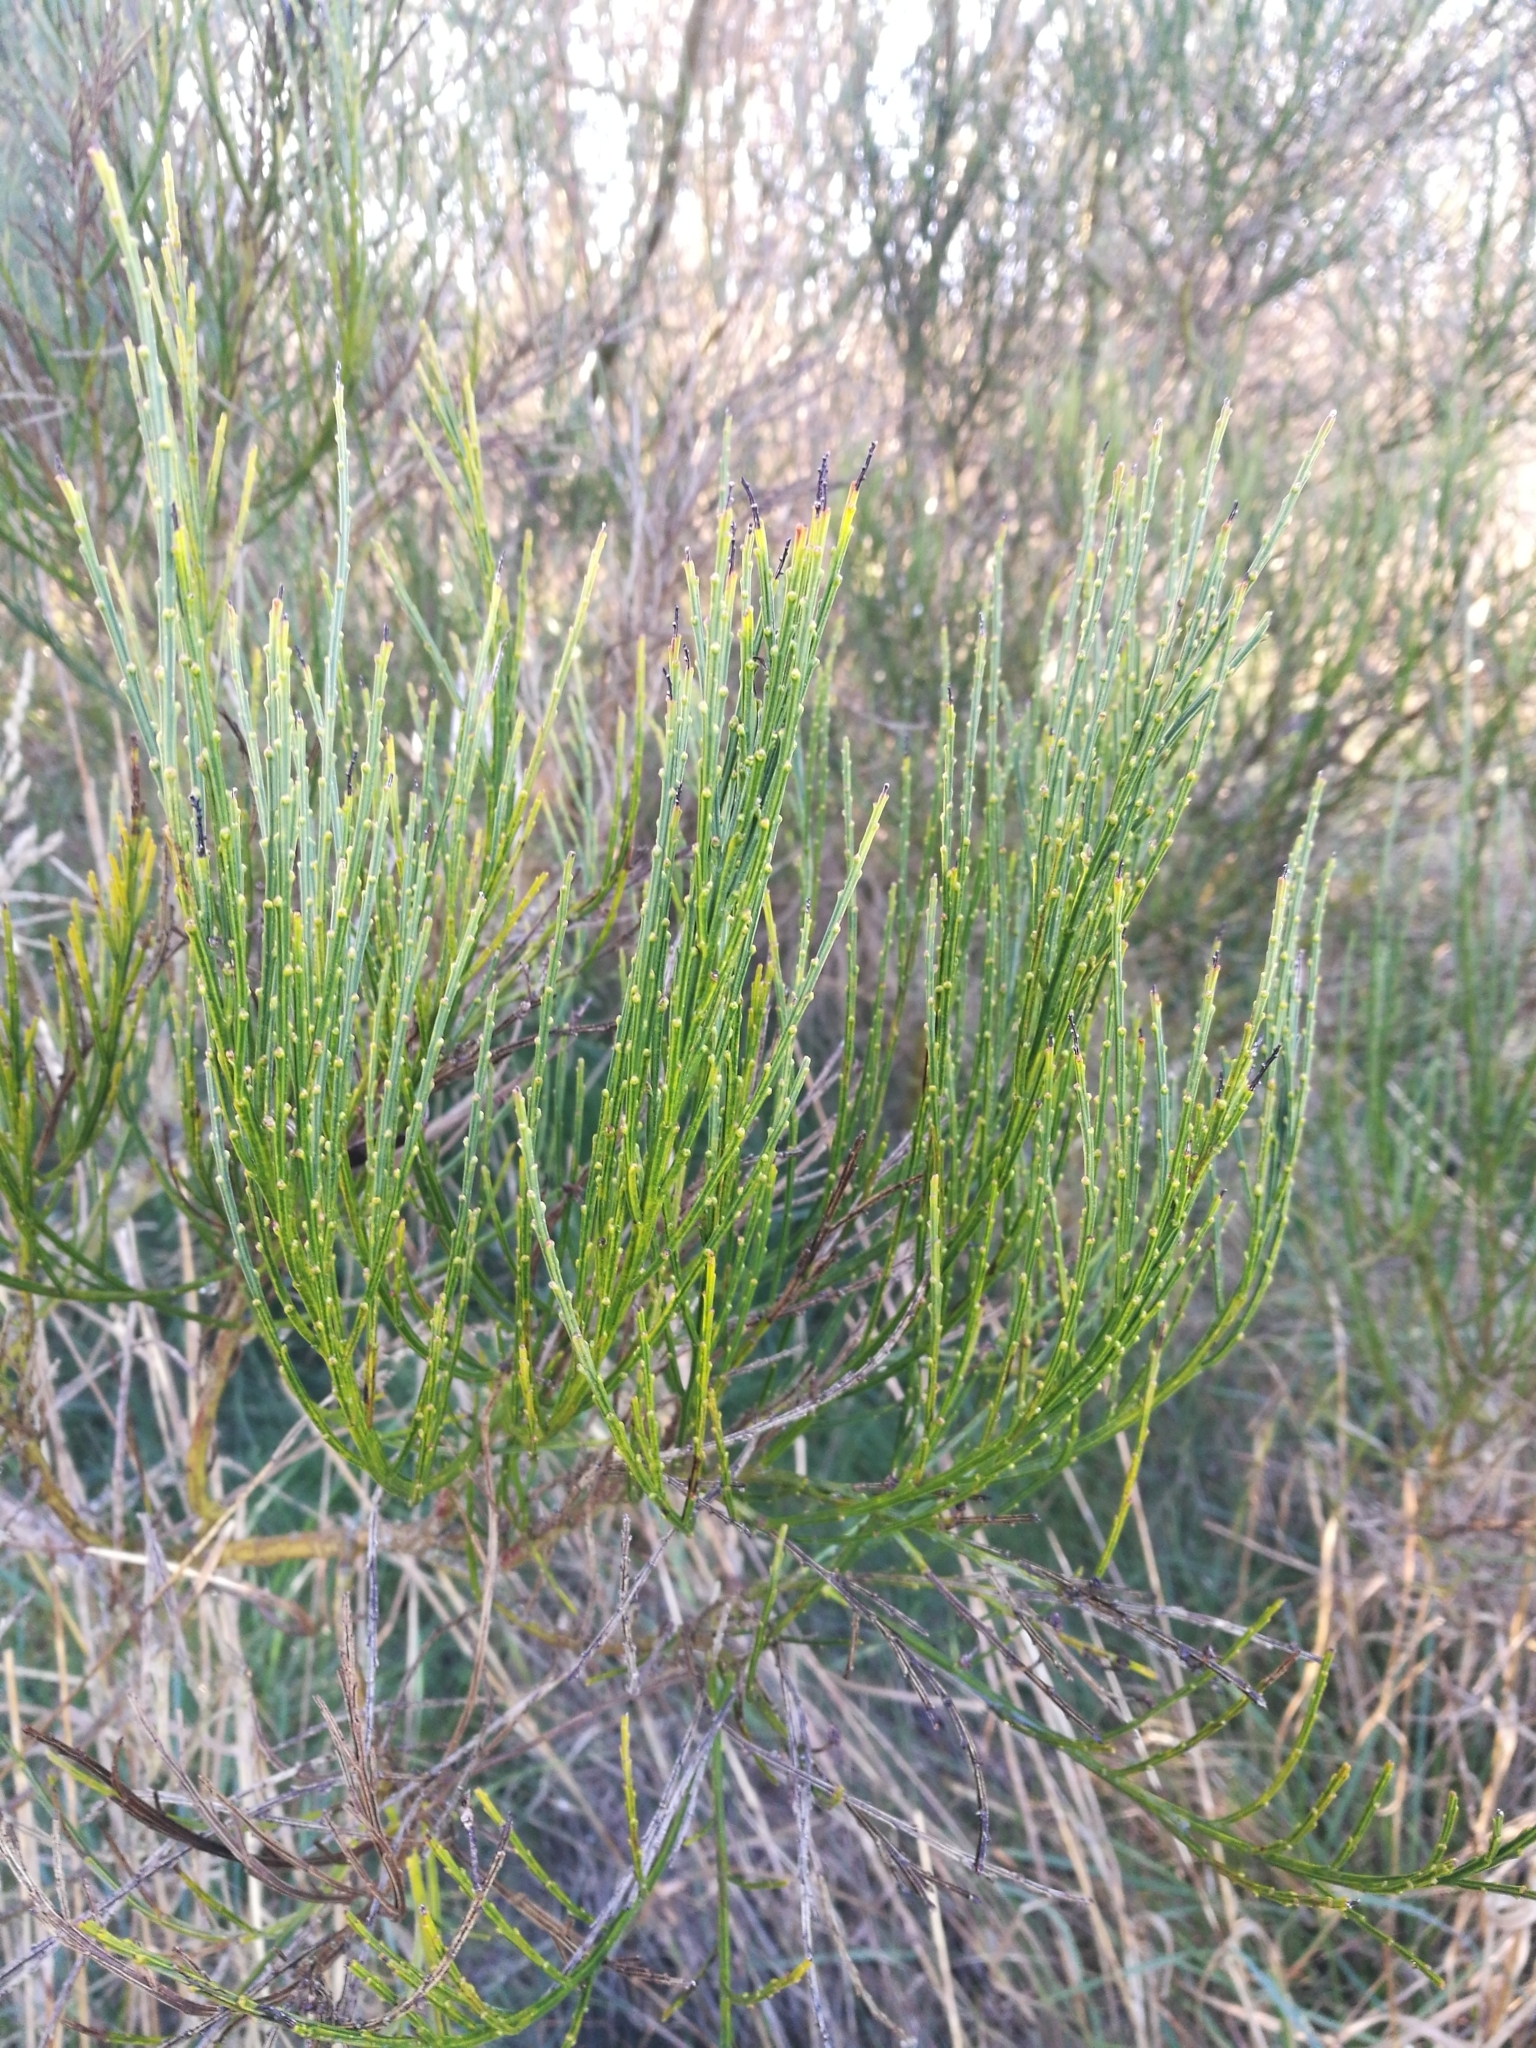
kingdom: Plantae
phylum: Tracheophyta
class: Magnoliopsida
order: Fabales
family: Fabaceae
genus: Cytisus
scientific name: Cytisus scoparius
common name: Scotch broom
